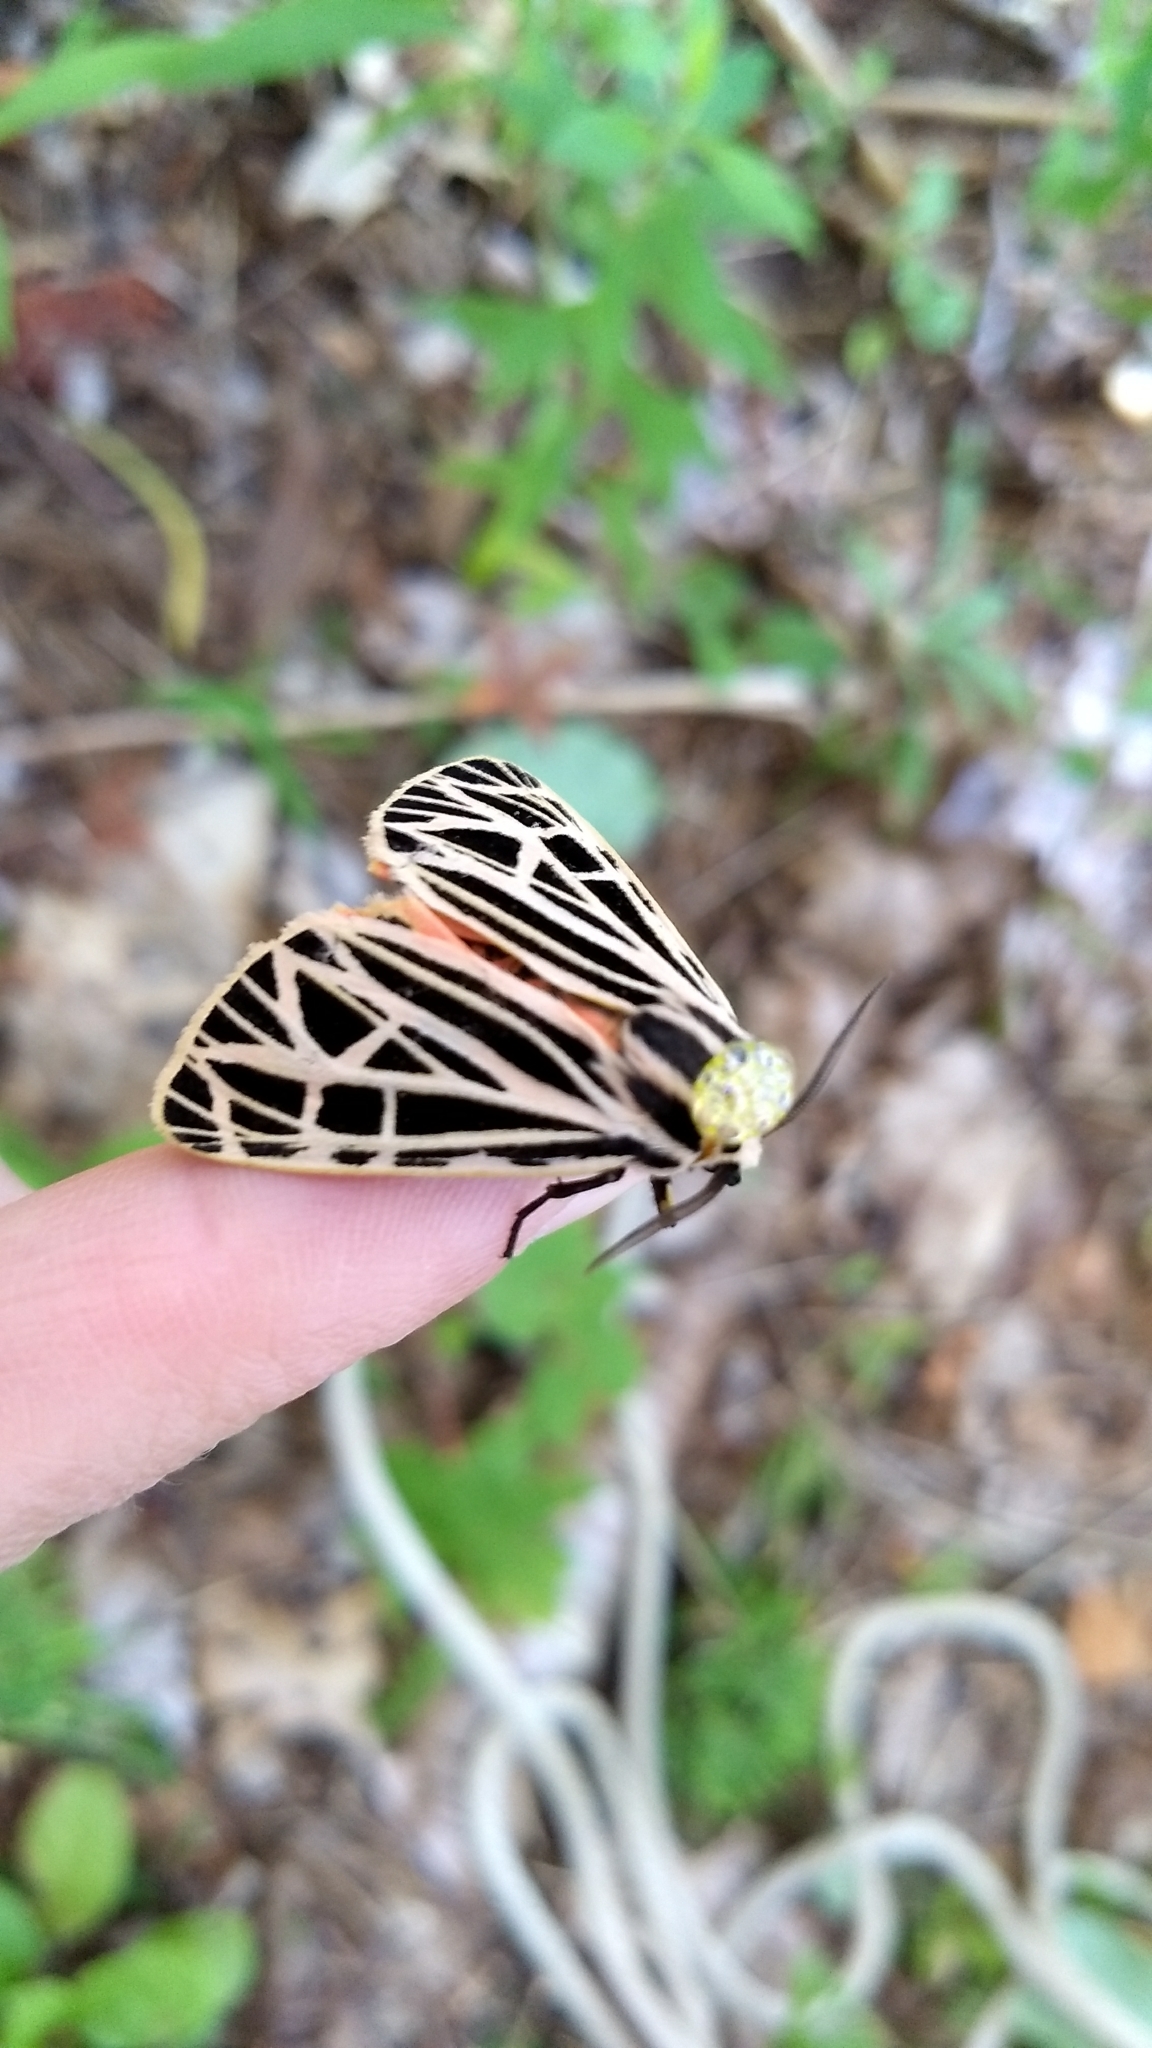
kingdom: Animalia
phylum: Arthropoda
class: Insecta
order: Lepidoptera
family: Erebidae
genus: Grammia
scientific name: Grammia virgo
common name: Virgin tiger moth
